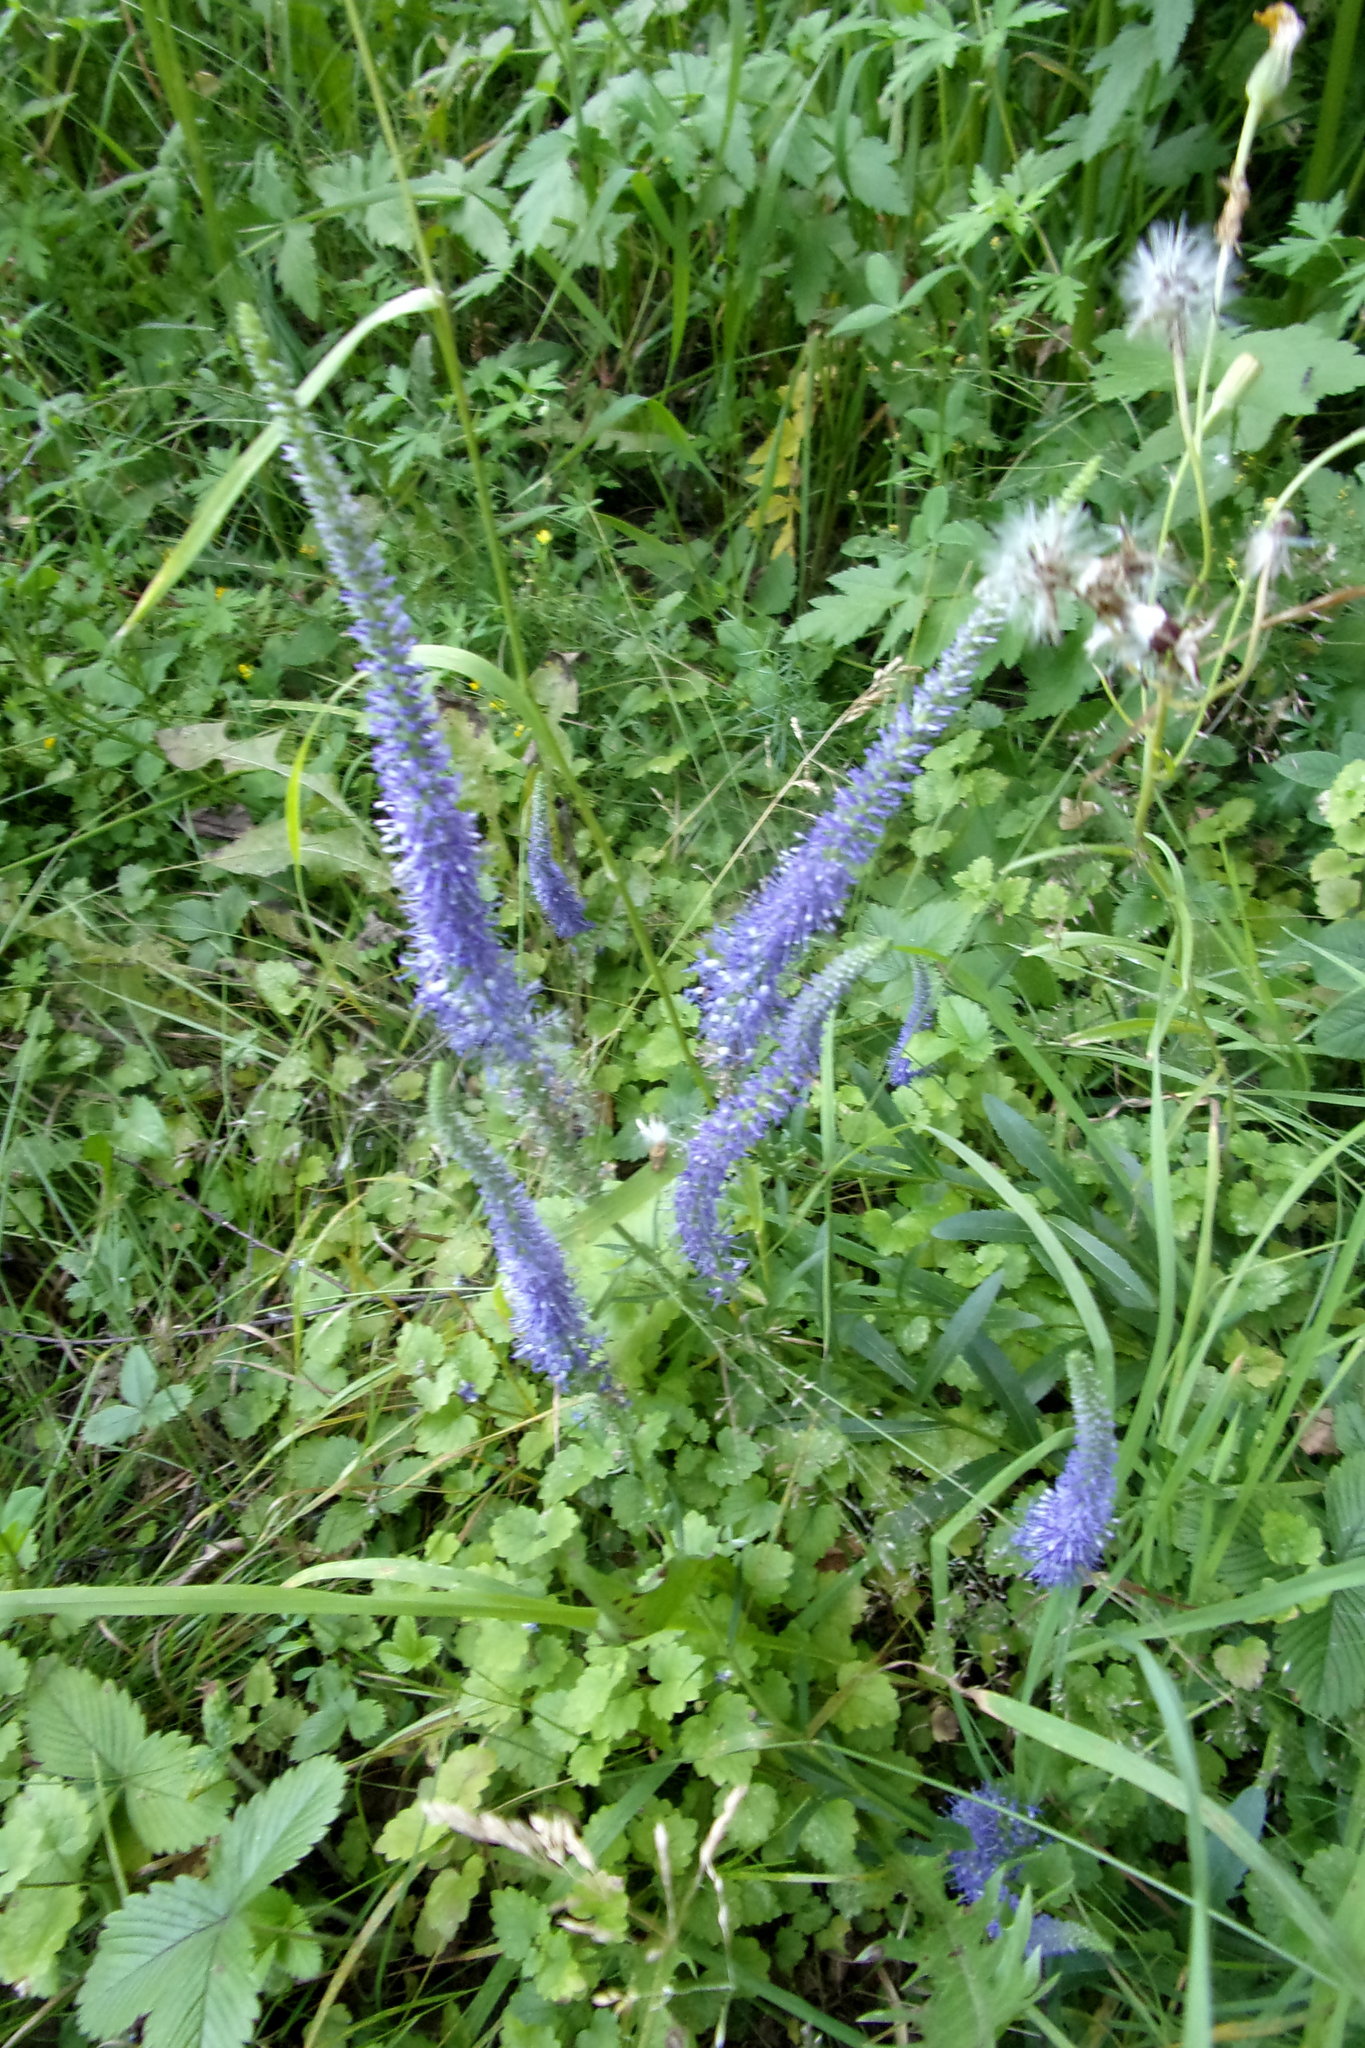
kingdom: Plantae
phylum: Tracheophyta
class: Magnoliopsida
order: Lamiales
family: Plantaginaceae
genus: Veronica
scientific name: Veronica longifolia
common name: Garden speedwell
